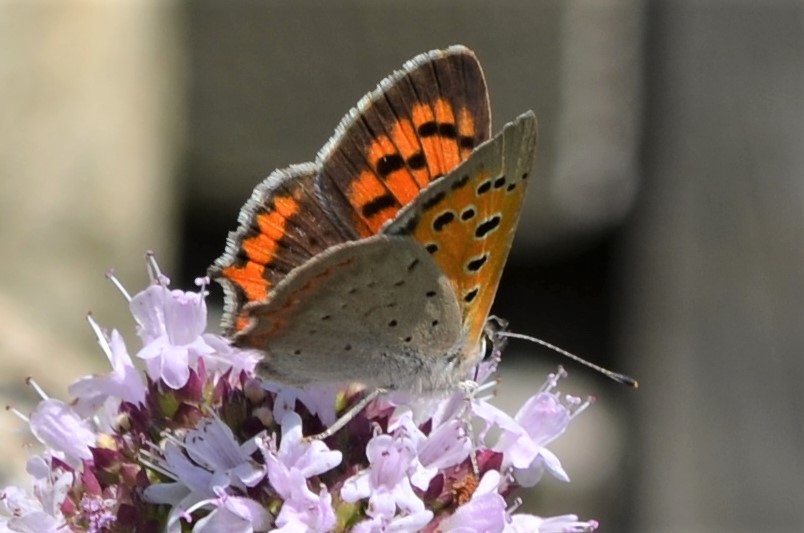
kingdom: Animalia
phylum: Arthropoda
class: Insecta
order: Lepidoptera
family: Lycaenidae
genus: Lycaena
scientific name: Lycaena phlaeas
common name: Small copper
